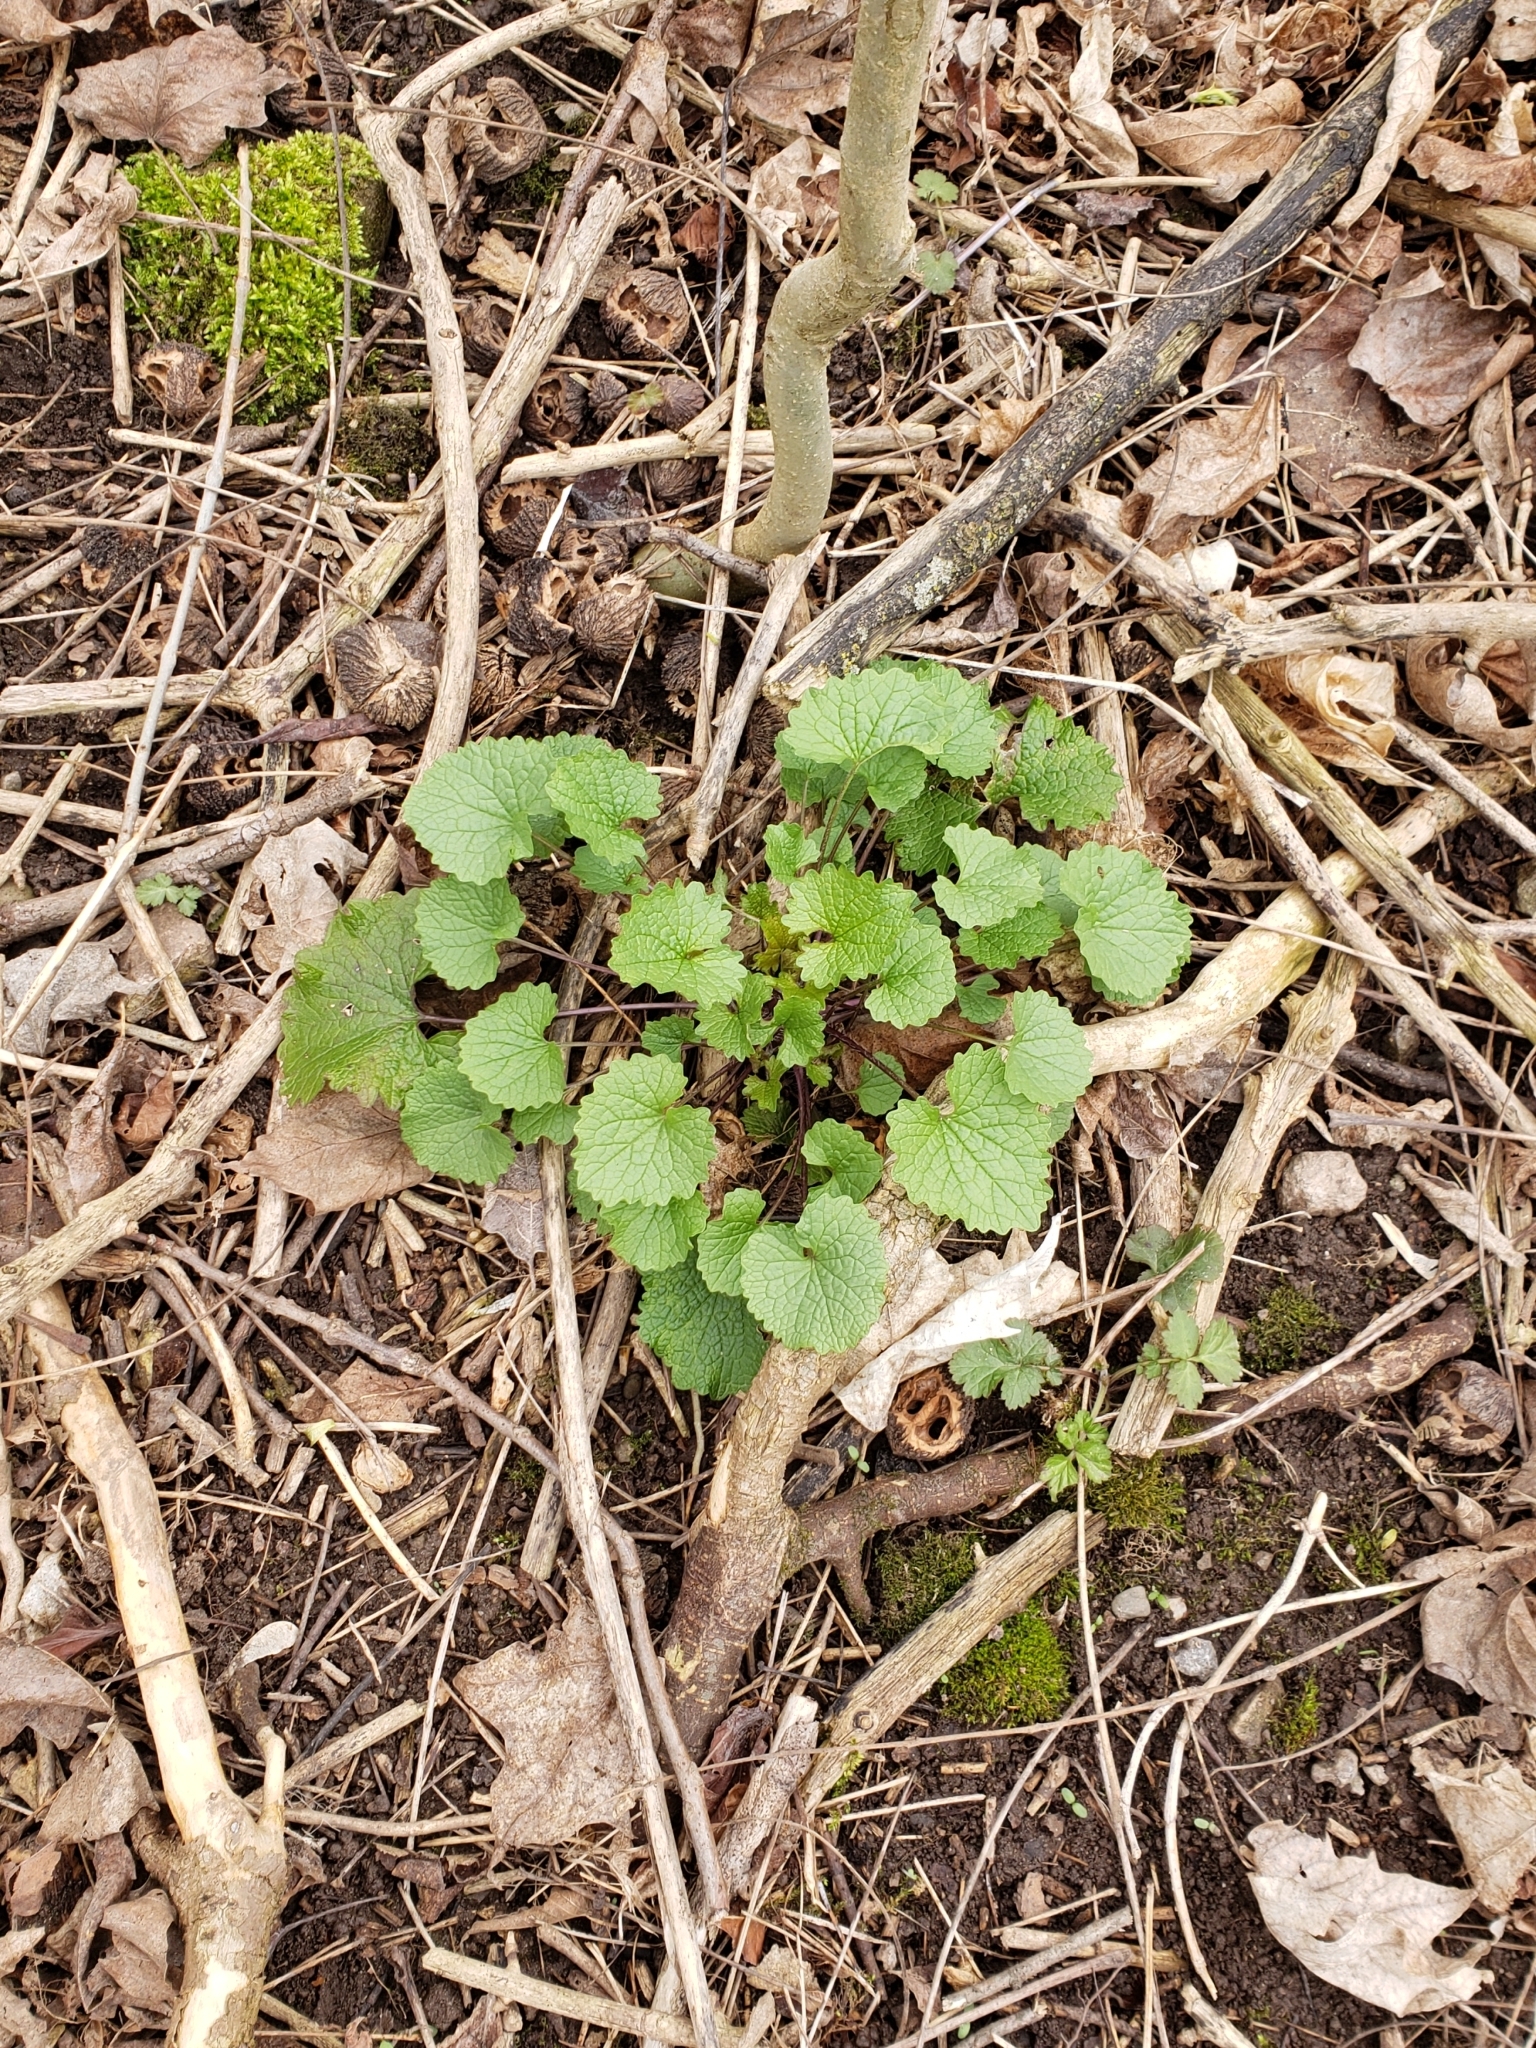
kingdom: Plantae
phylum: Tracheophyta
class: Magnoliopsida
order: Brassicales
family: Brassicaceae
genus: Alliaria
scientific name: Alliaria petiolata
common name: Garlic mustard
